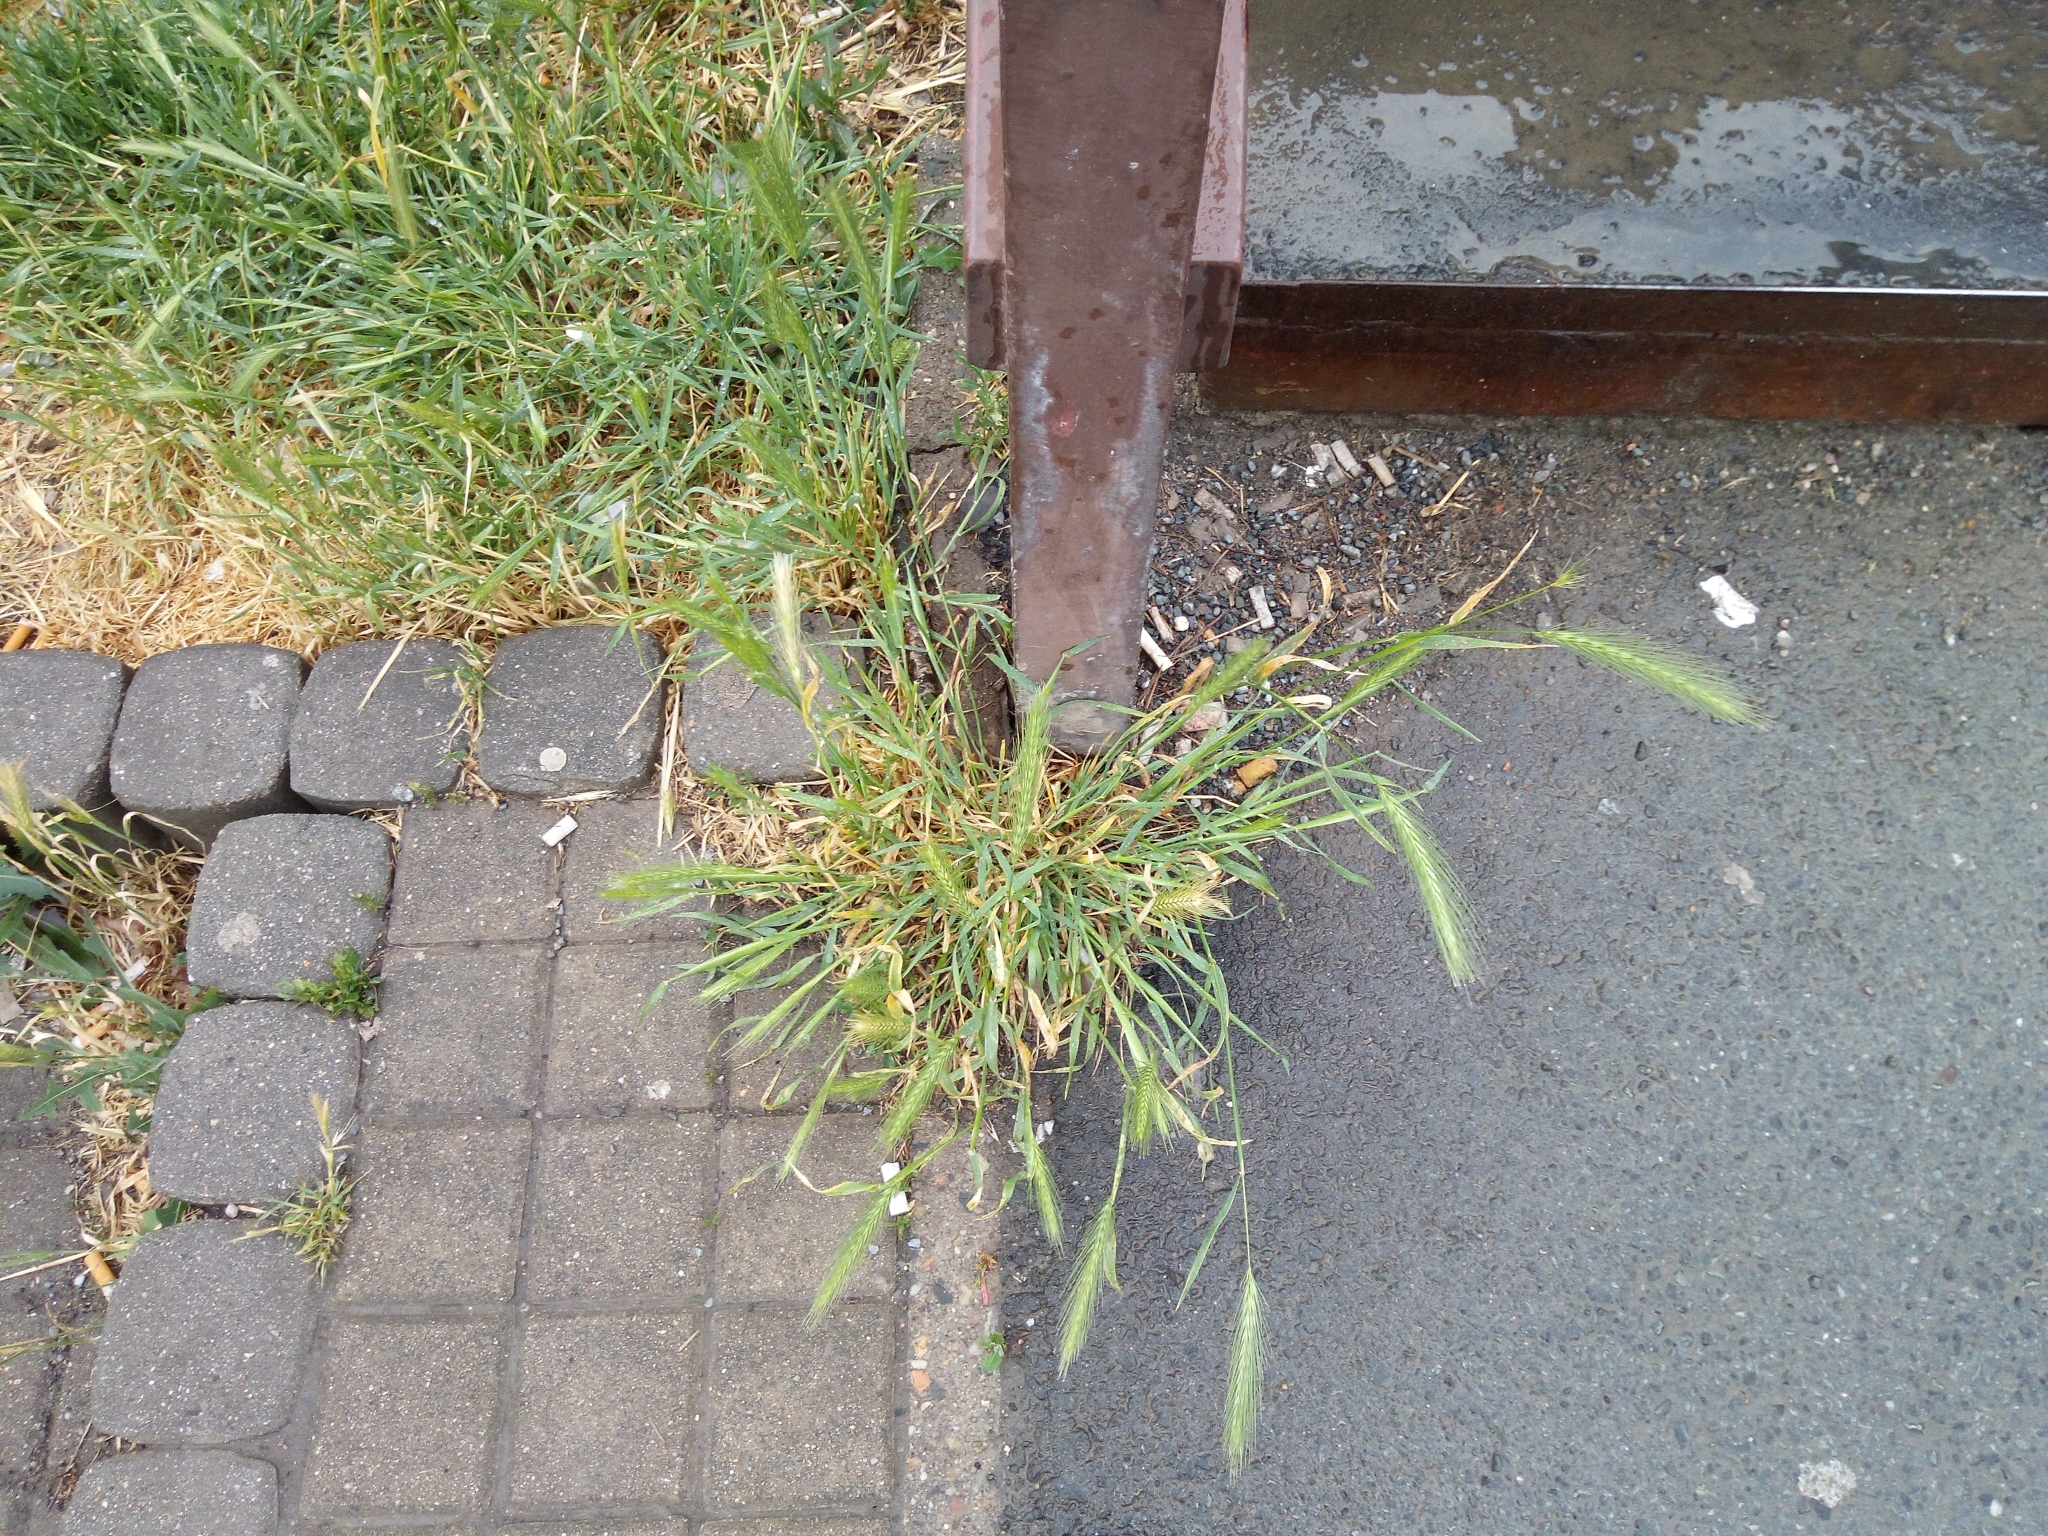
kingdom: Plantae
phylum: Tracheophyta
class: Liliopsida
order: Poales
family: Poaceae
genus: Hordeum
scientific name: Hordeum murinum
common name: Wall barley
